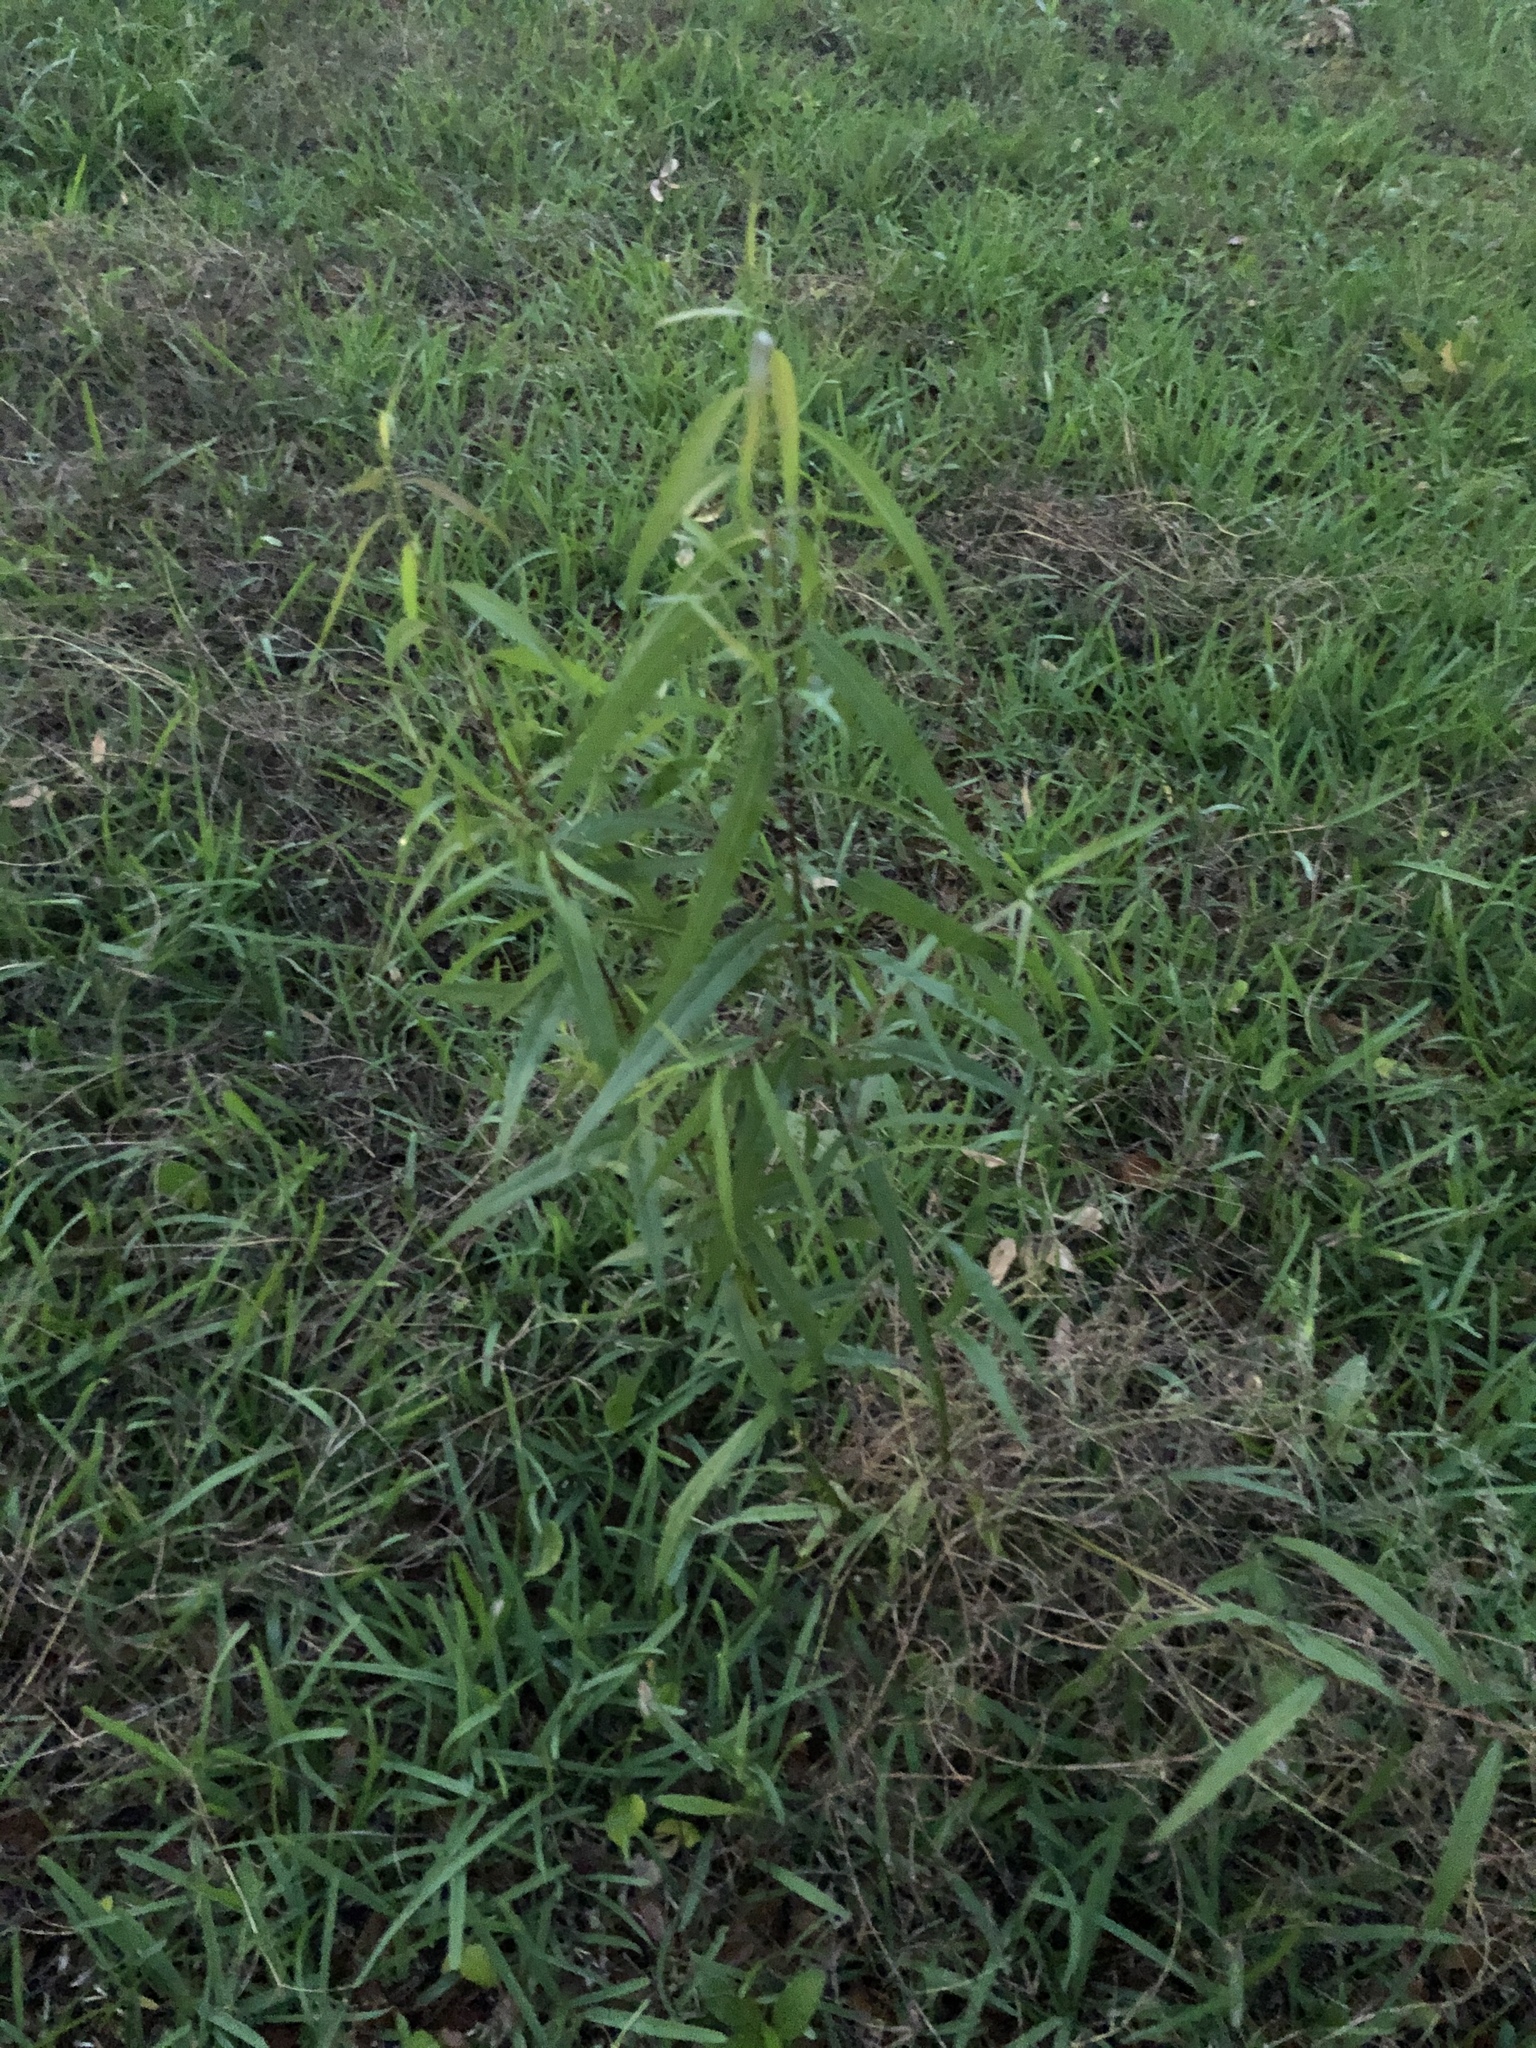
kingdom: Plantae
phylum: Tracheophyta
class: Magnoliopsida
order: Malpighiales
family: Salicaceae
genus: Salix
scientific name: Salix nigra
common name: Black willow
